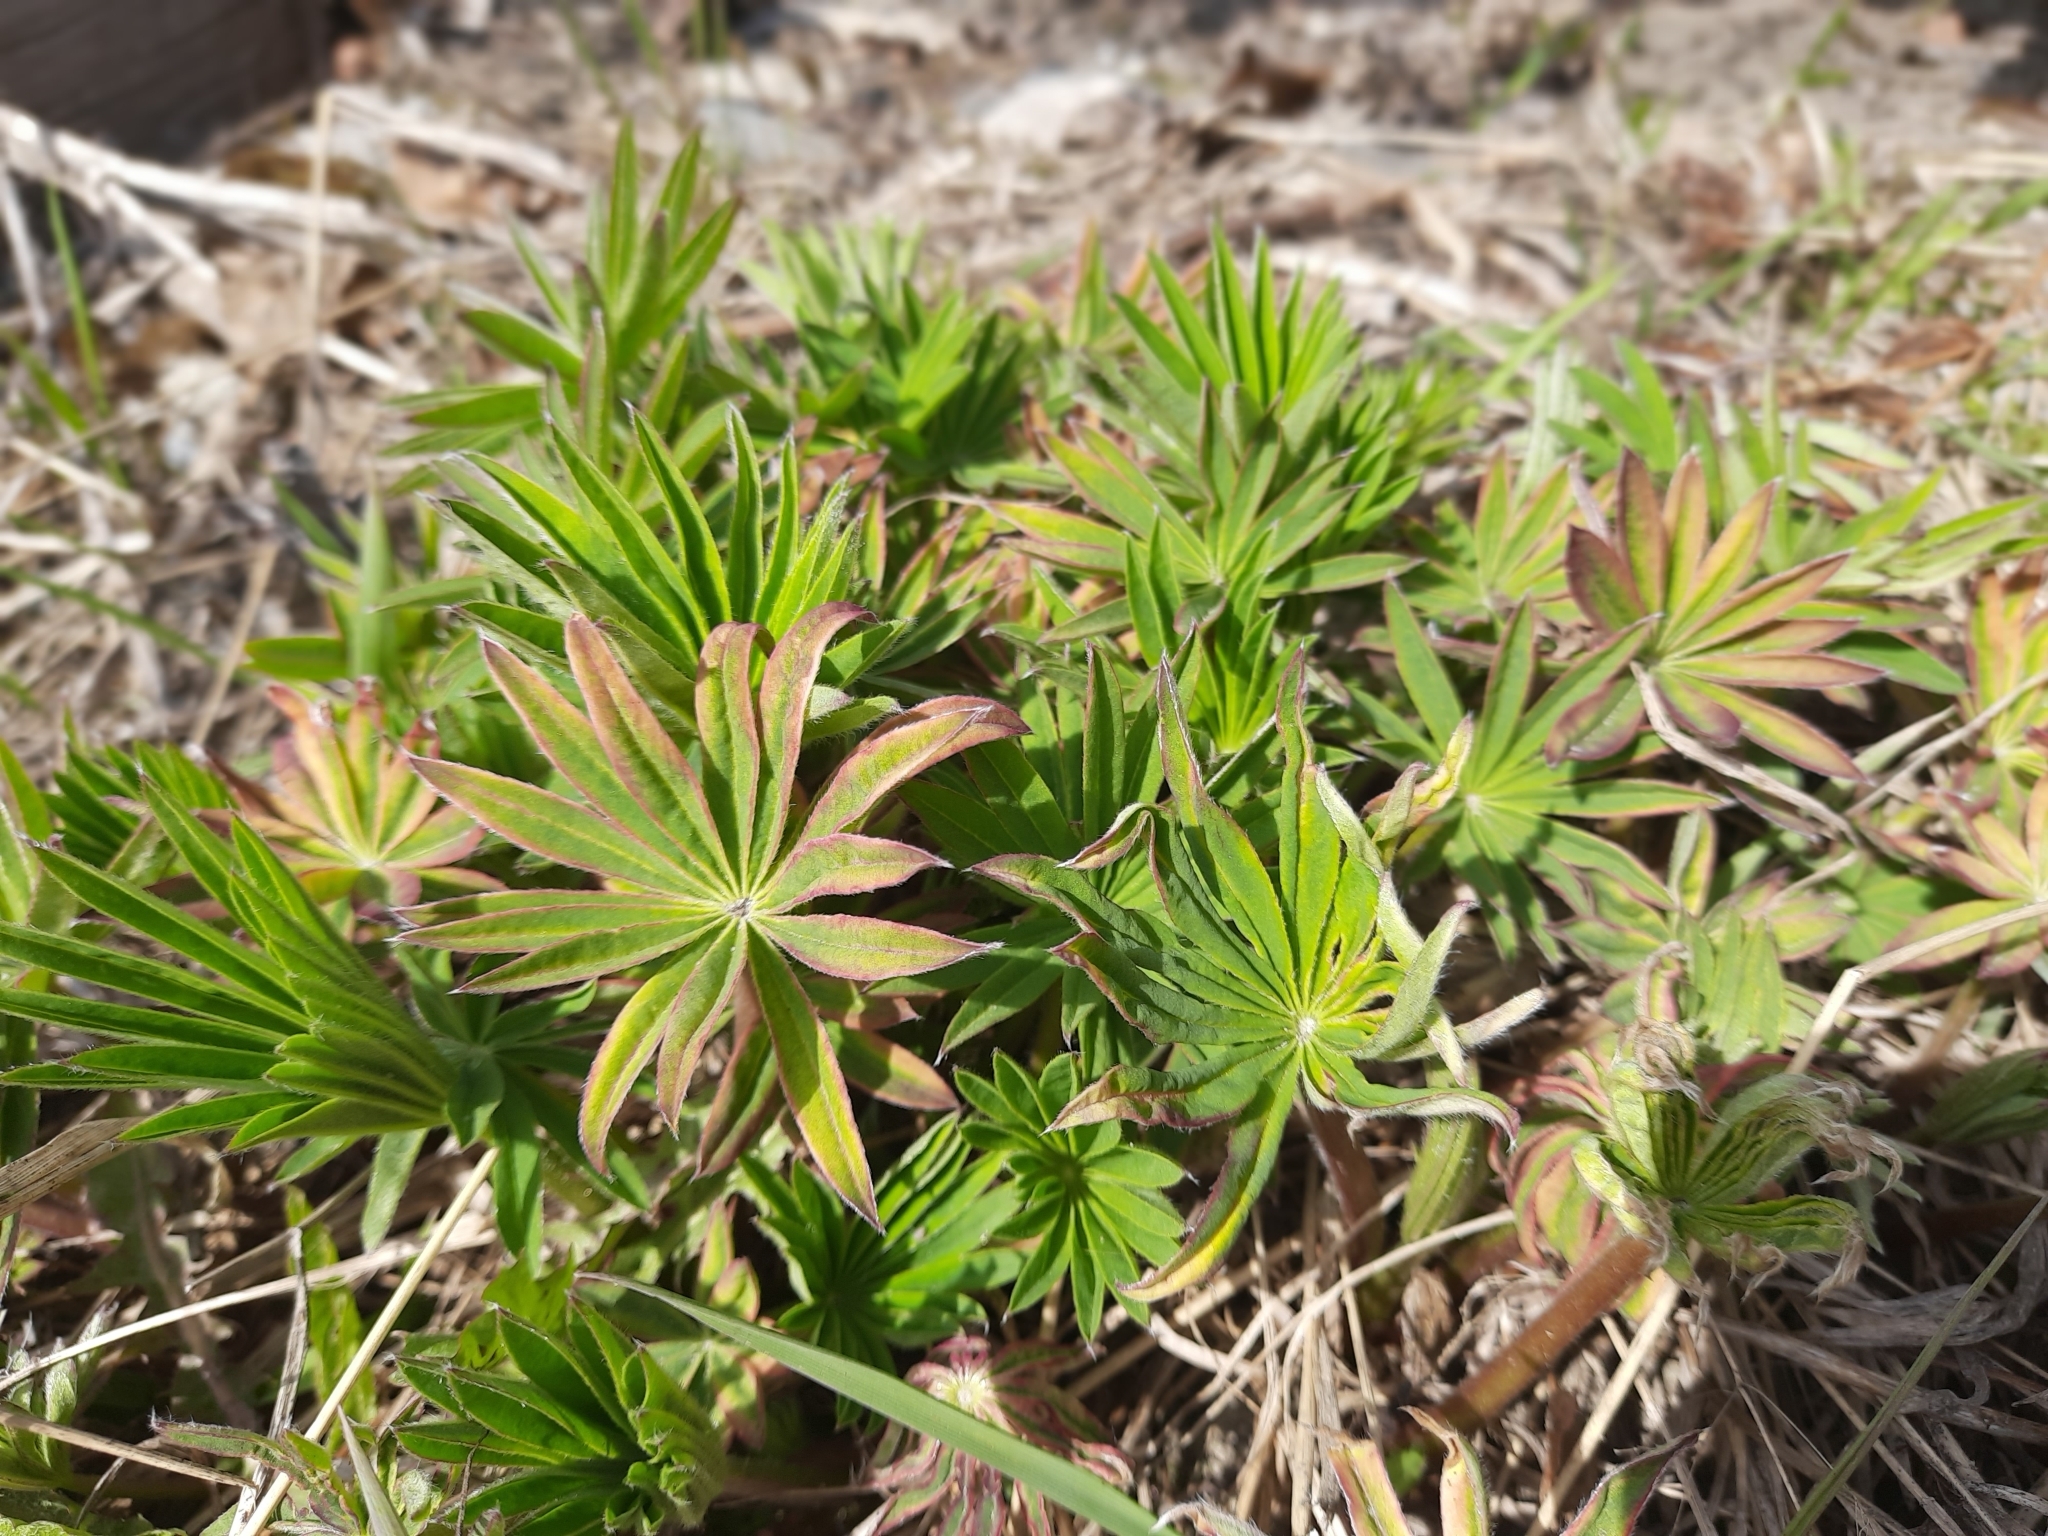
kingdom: Plantae
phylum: Tracheophyta
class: Magnoliopsida
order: Fabales
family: Fabaceae
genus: Lupinus
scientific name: Lupinus polyphyllus
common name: Garden lupin
